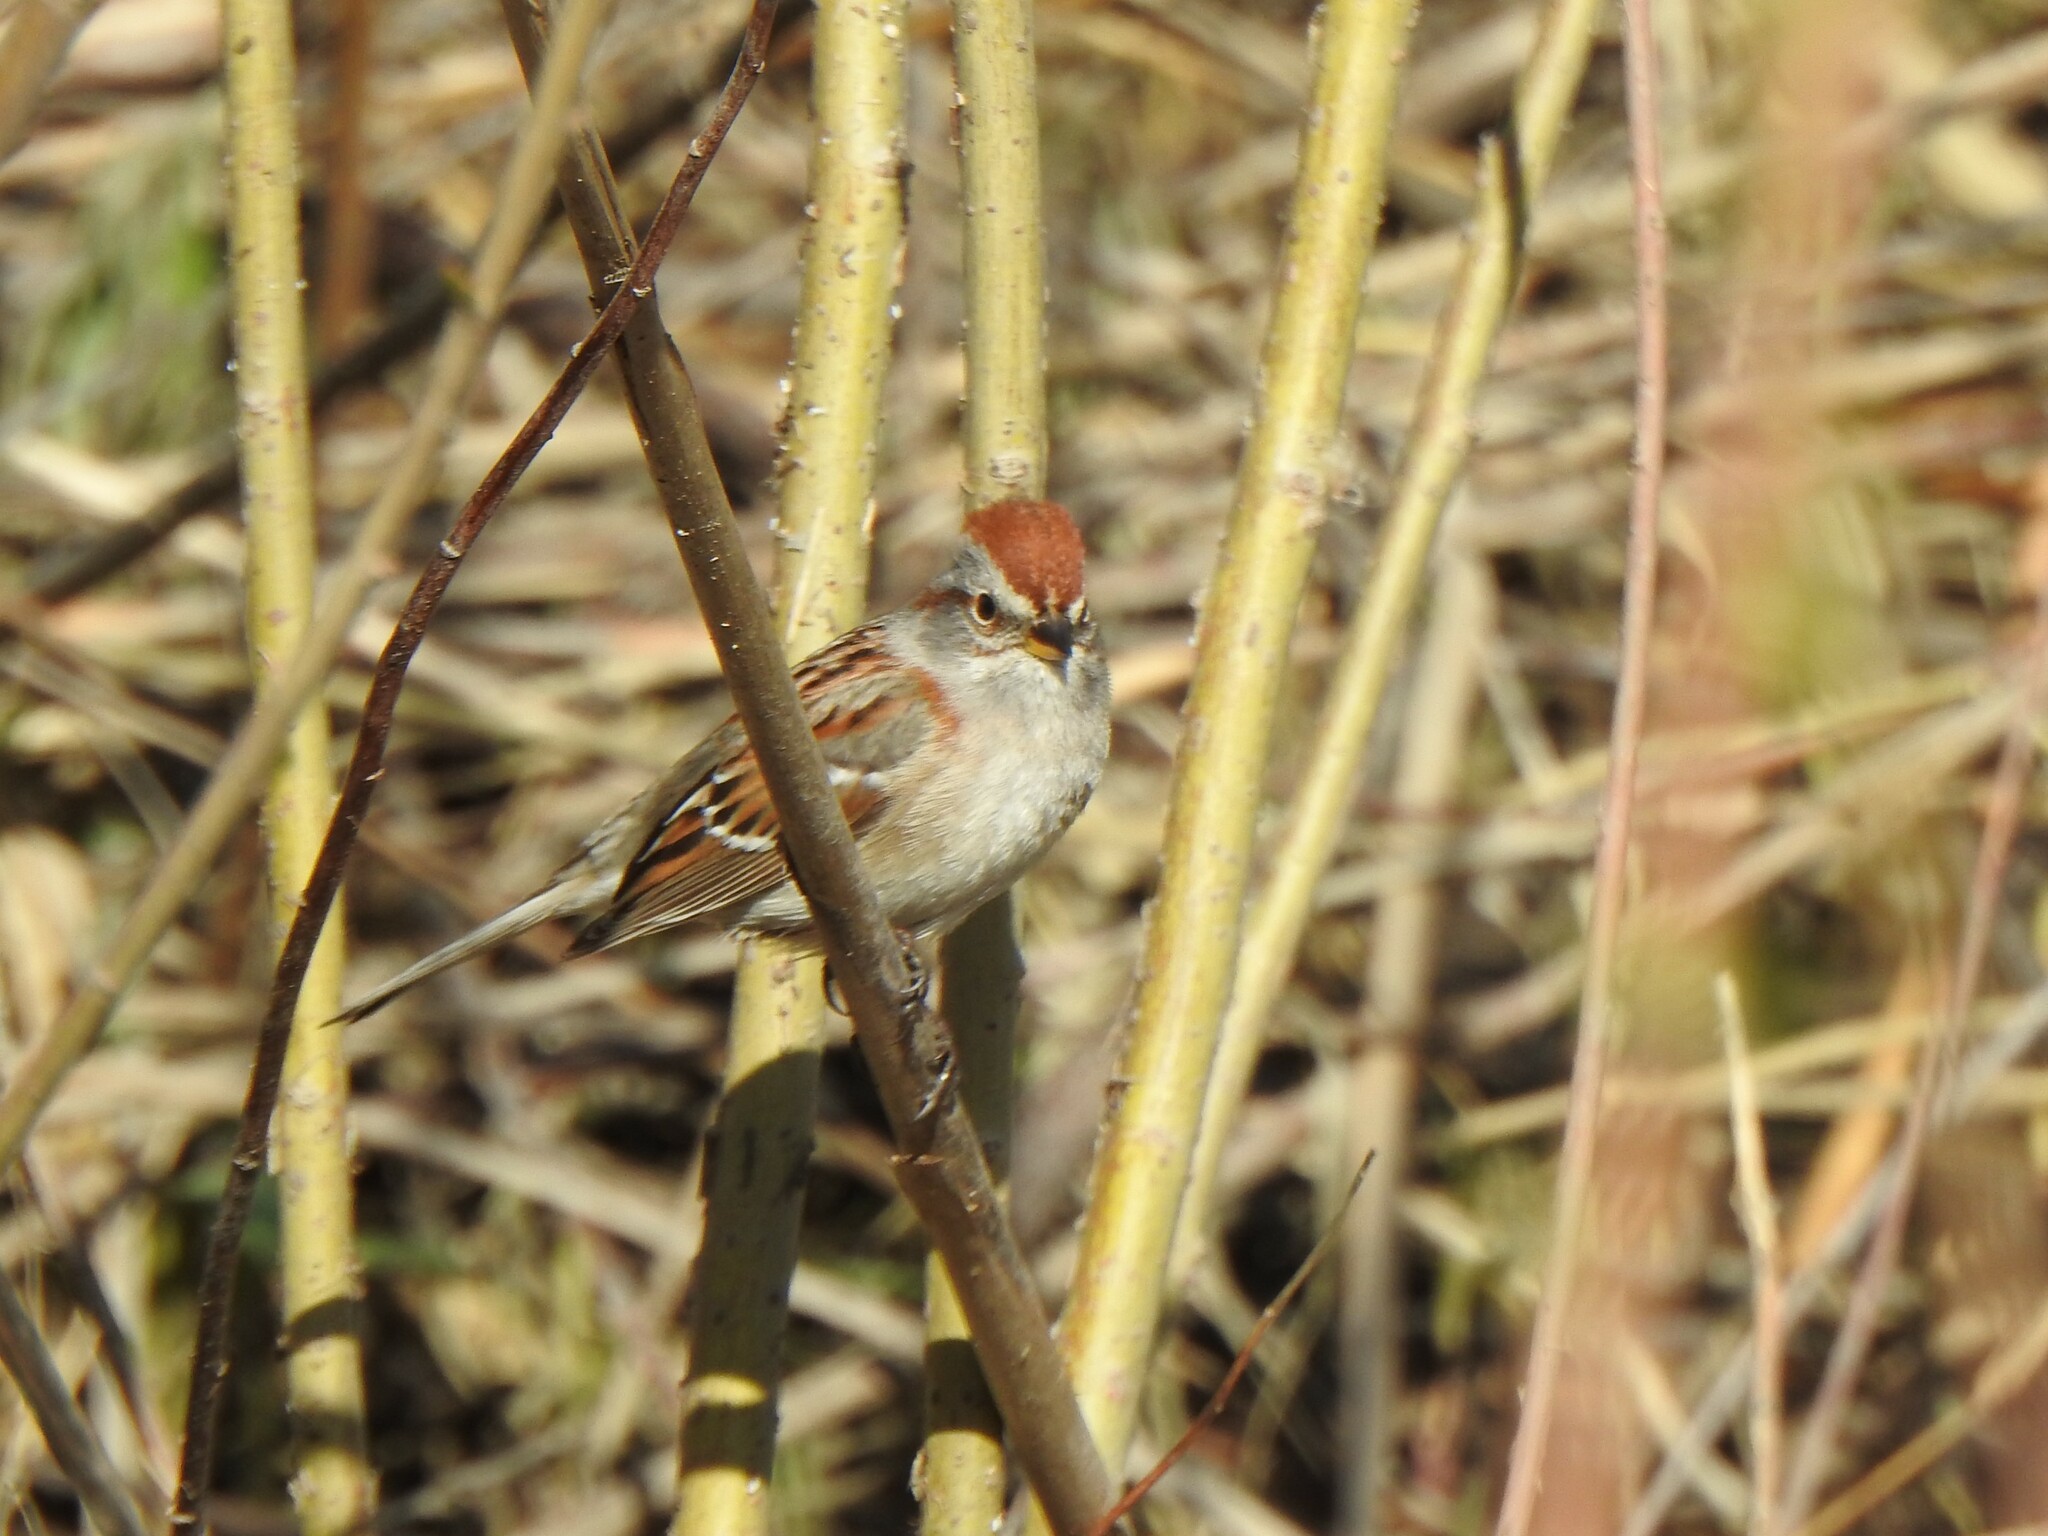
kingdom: Animalia
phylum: Chordata
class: Aves
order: Passeriformes
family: Passerellidae
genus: Spizelloides
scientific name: Spizelloides arborea
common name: American tree sparrow
